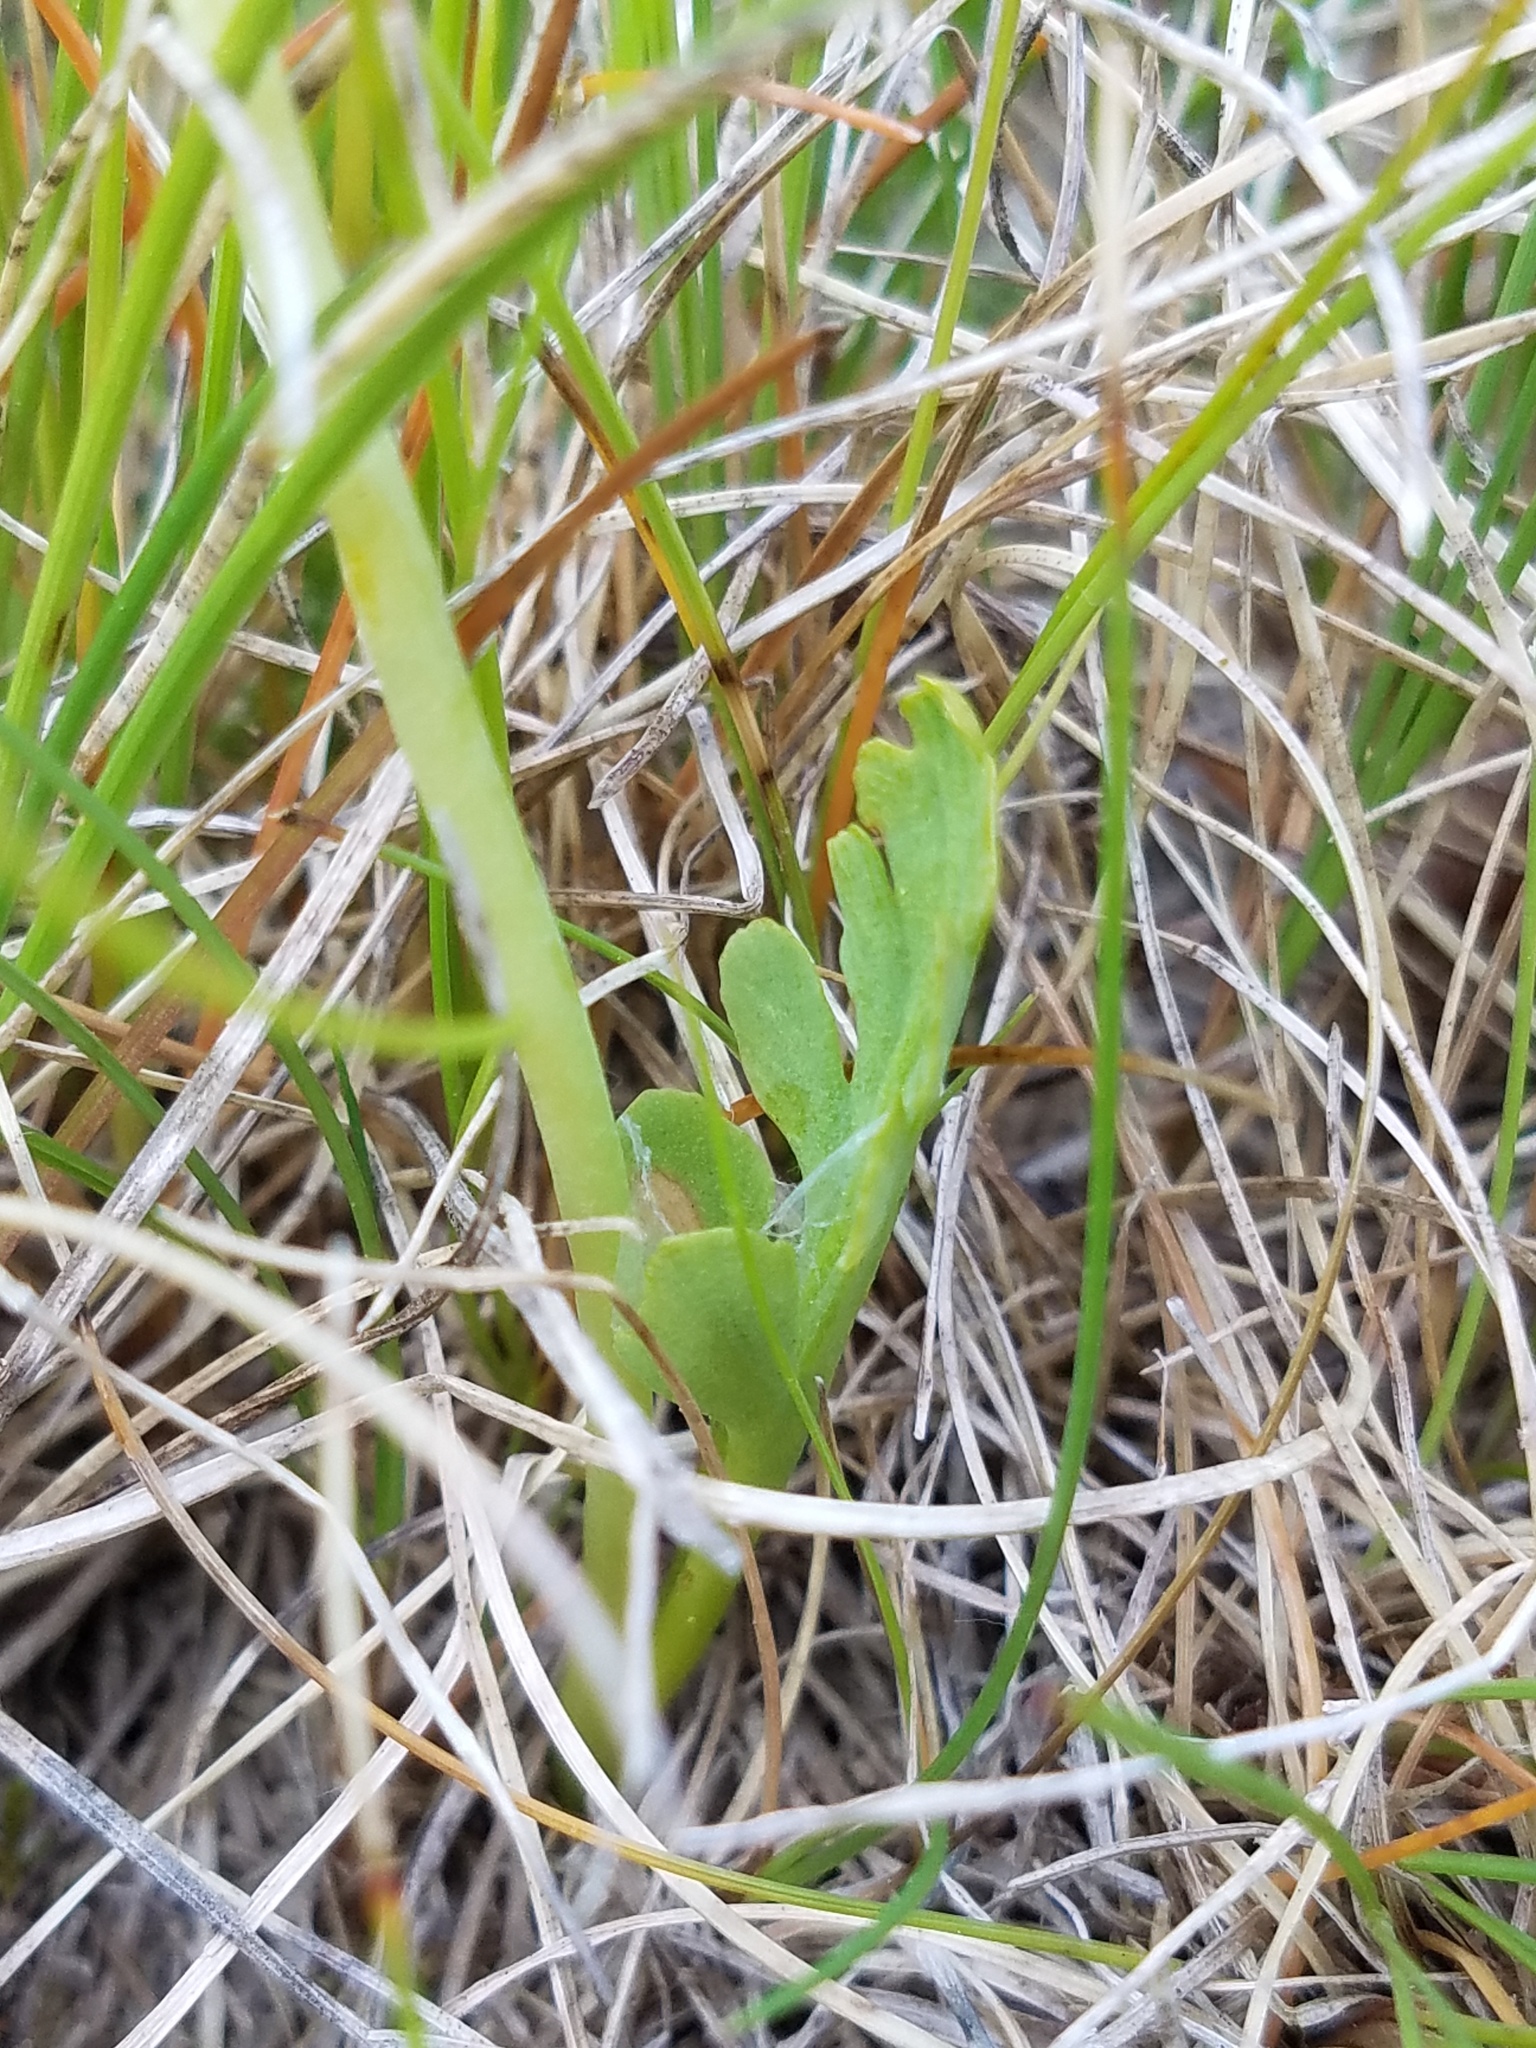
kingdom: Plantae
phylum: Tracheophyta
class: Polypodiopsida
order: Ophioglossales
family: Ophioglossaceae
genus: Botrychium
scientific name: Botrychium simplex
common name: Least moonwort
